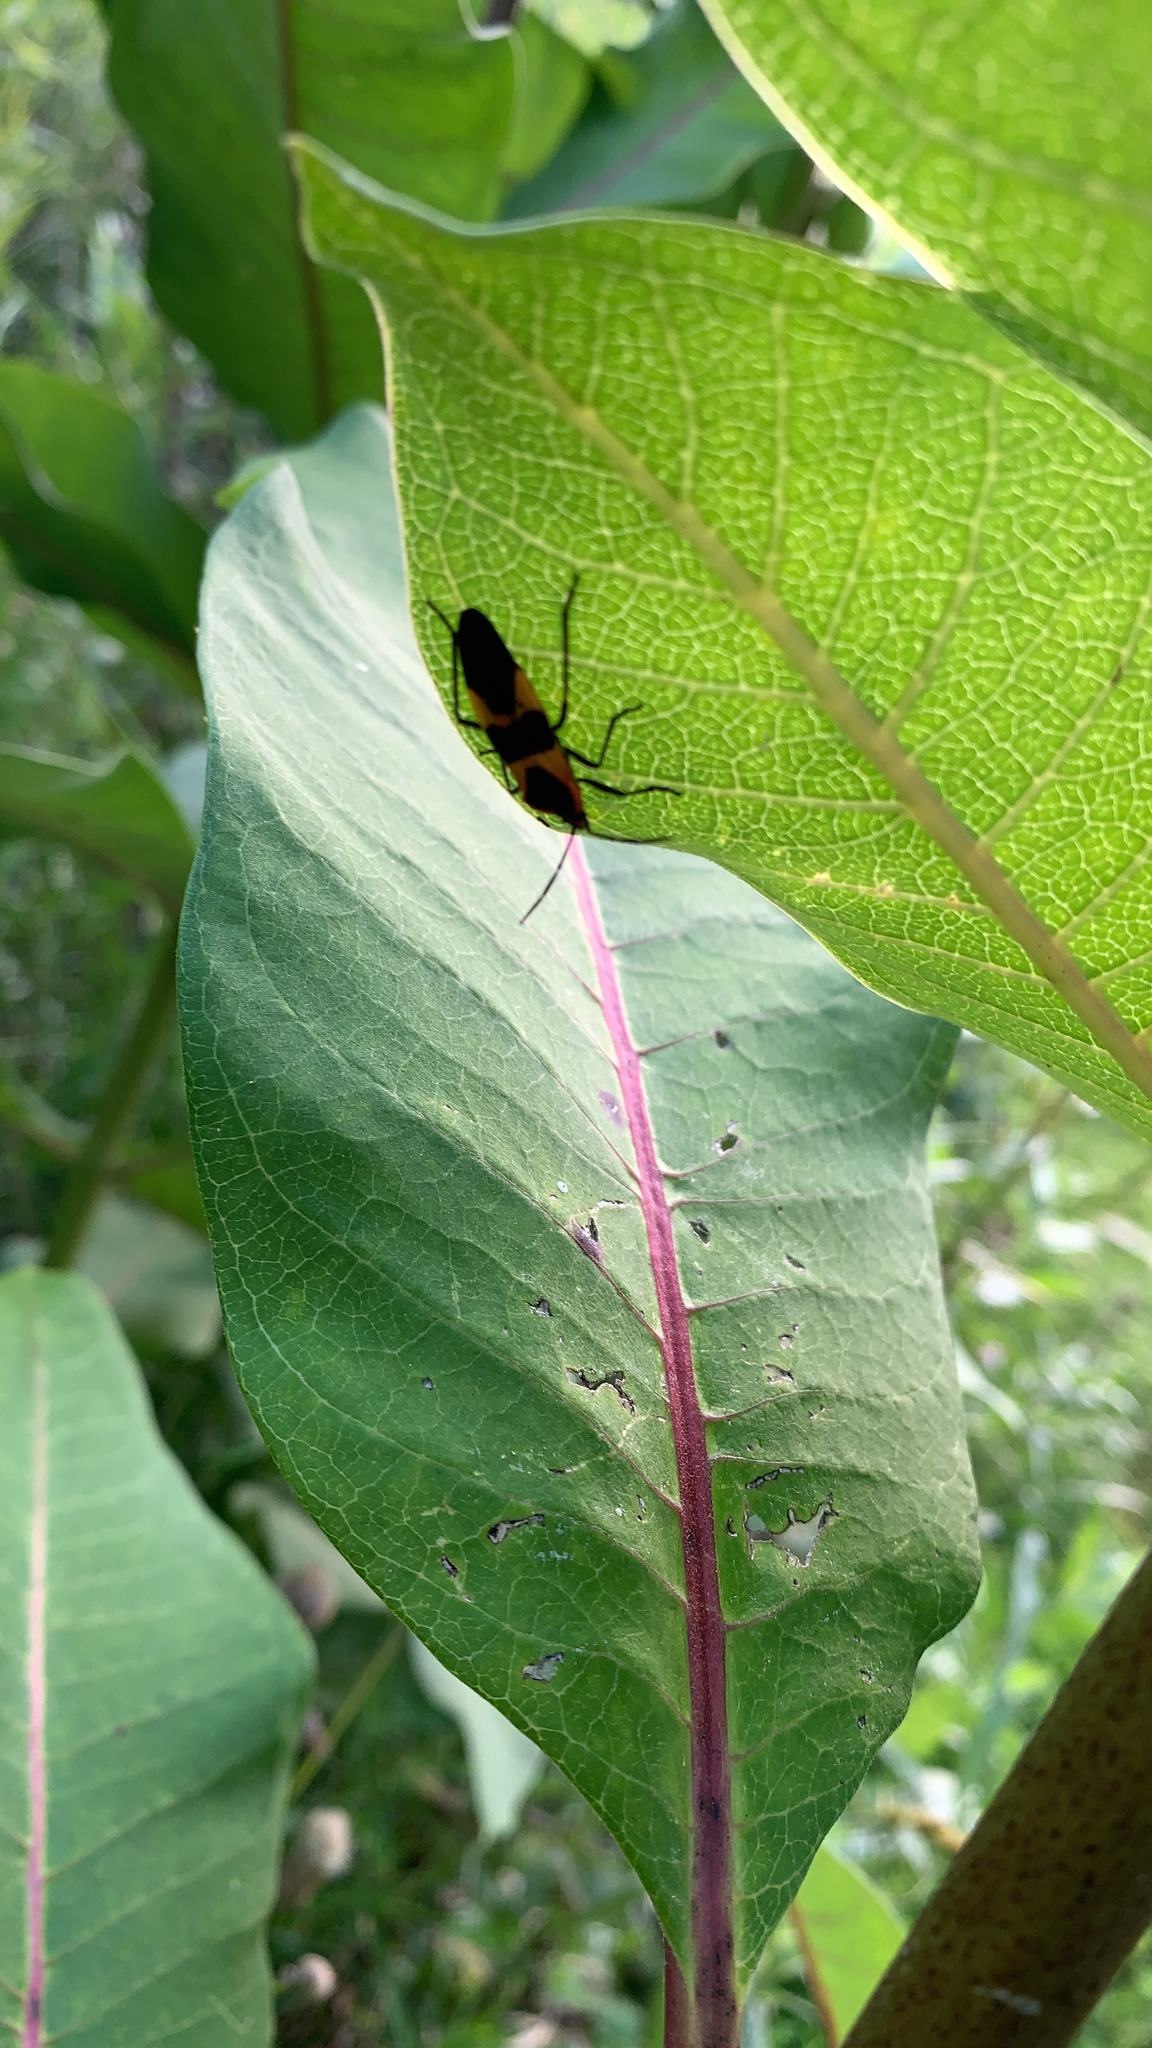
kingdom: Animalia
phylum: Arthropoda
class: Insecta
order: Hemiptera
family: Lygaeidae
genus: Oncopeltus
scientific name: Oncopeltus fasciatus
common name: Large milkweed bug
